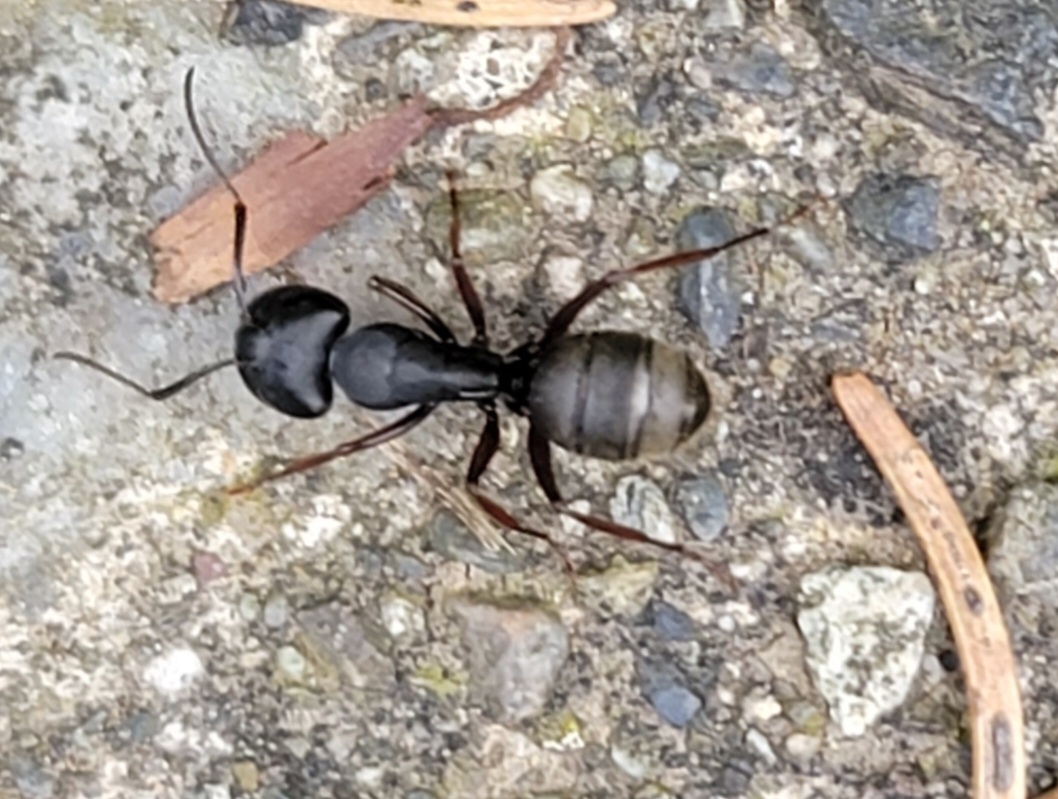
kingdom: Animalia
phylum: Arthropoda
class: Insecta
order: Hymenoptera
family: Formicidae
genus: Camponotus
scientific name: Camponotus modoc
